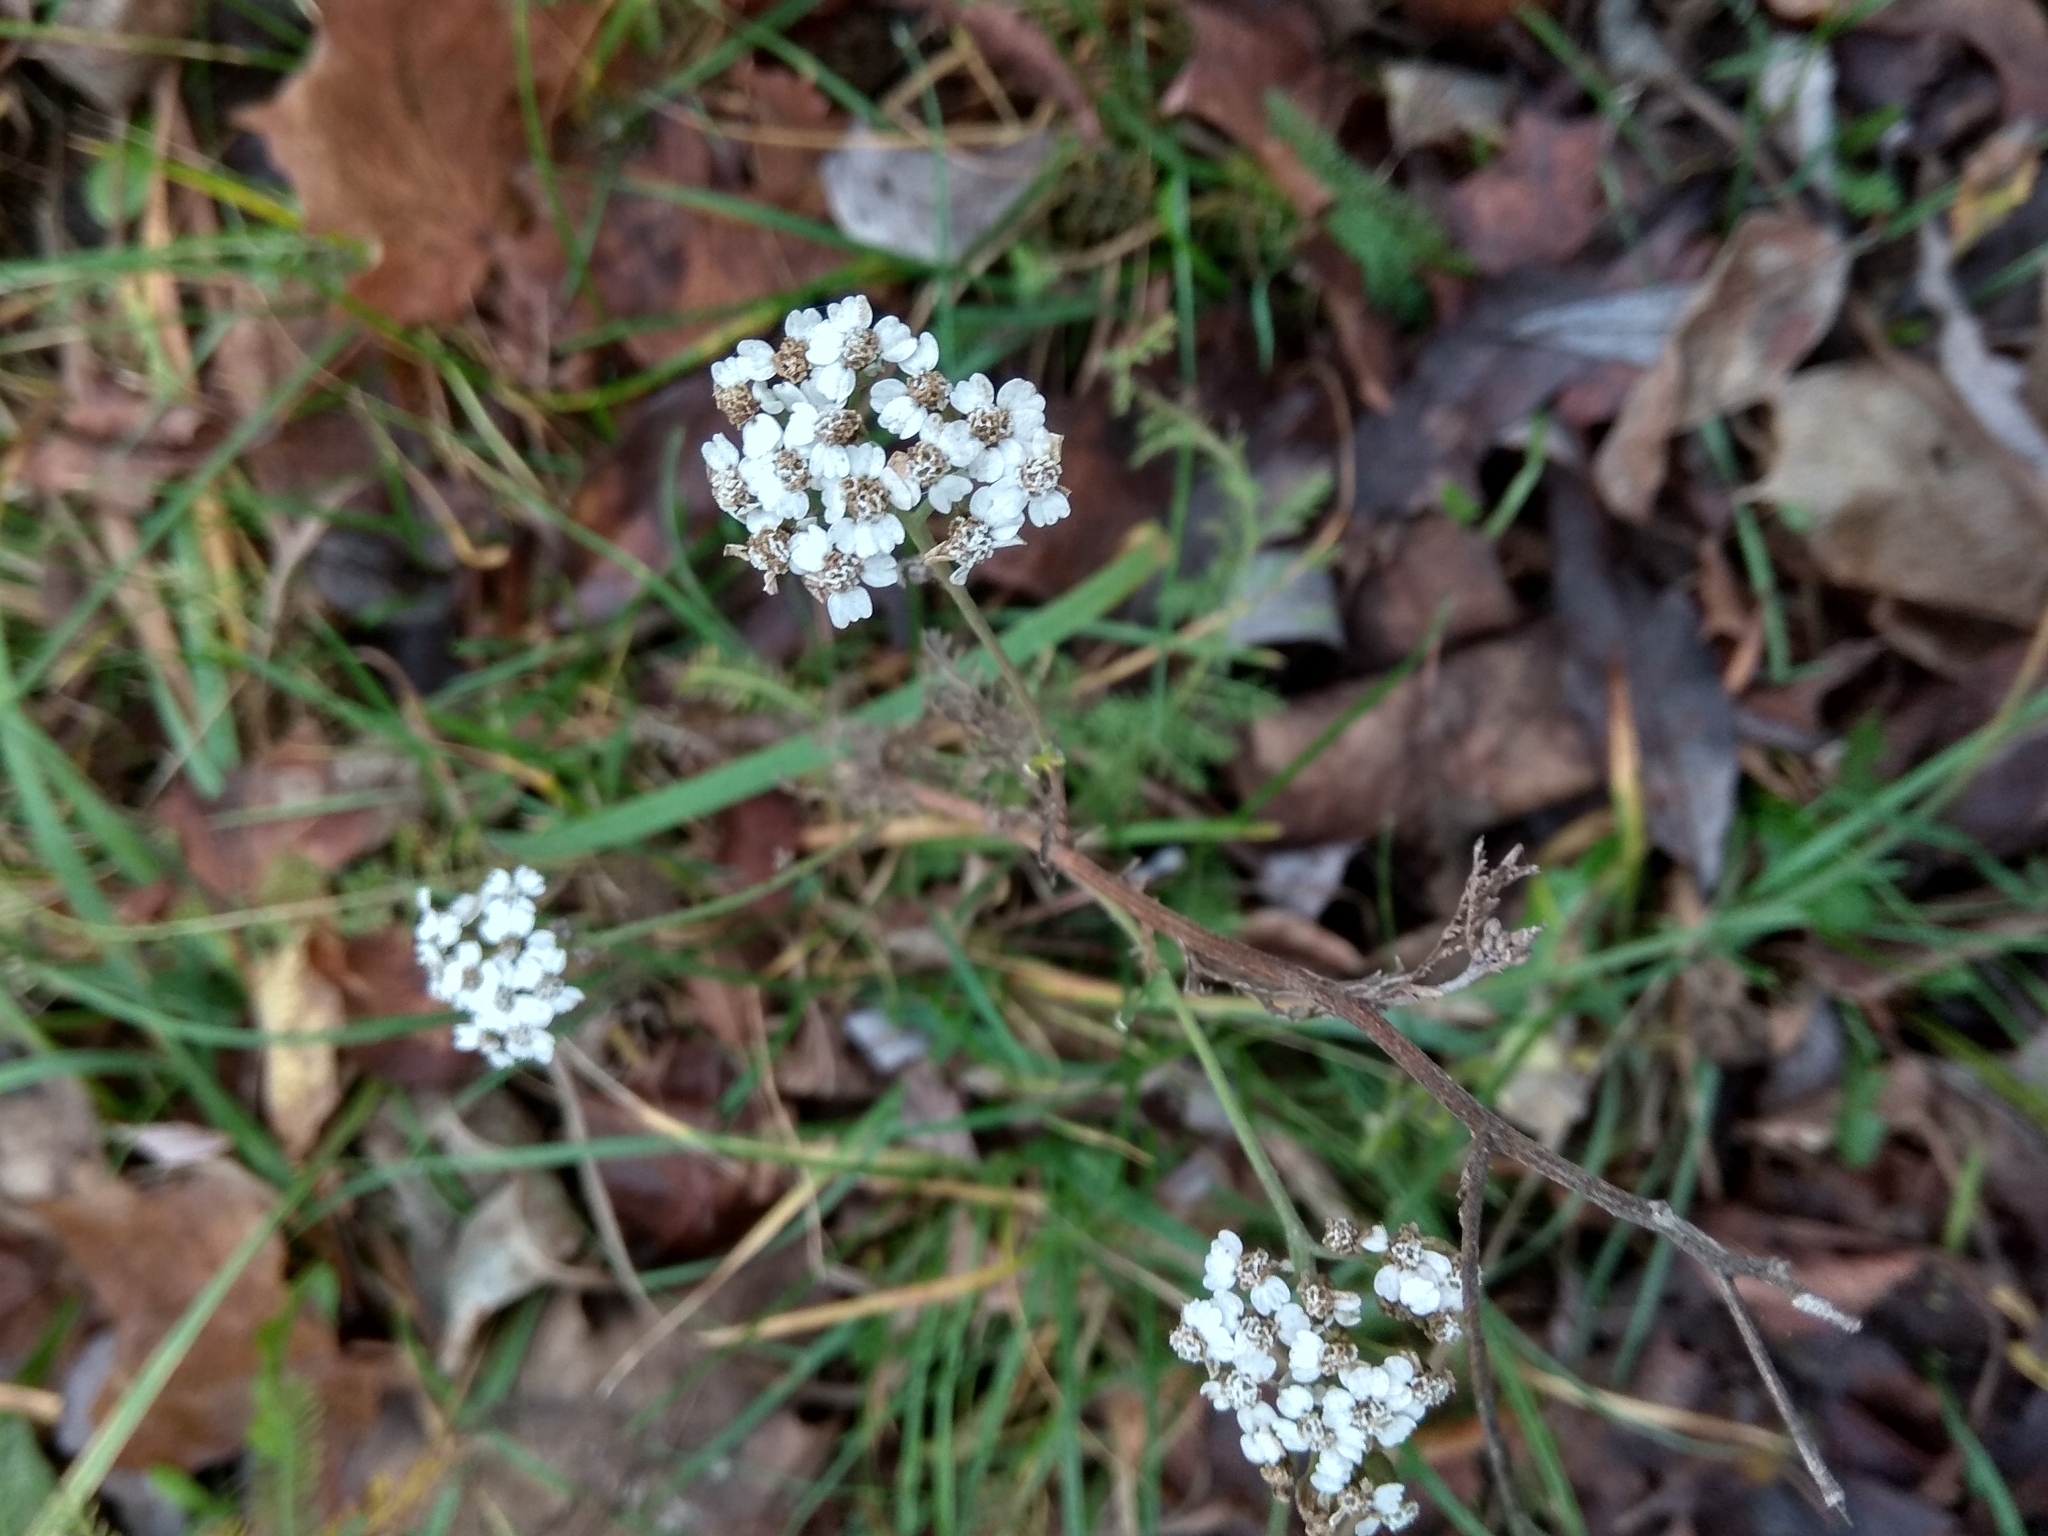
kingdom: Plantae
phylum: Tracheophyta
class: Magnoliopsida
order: Asterales
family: Asteraceae
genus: Achillea
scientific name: Achillea millefolium
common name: Yarrow
